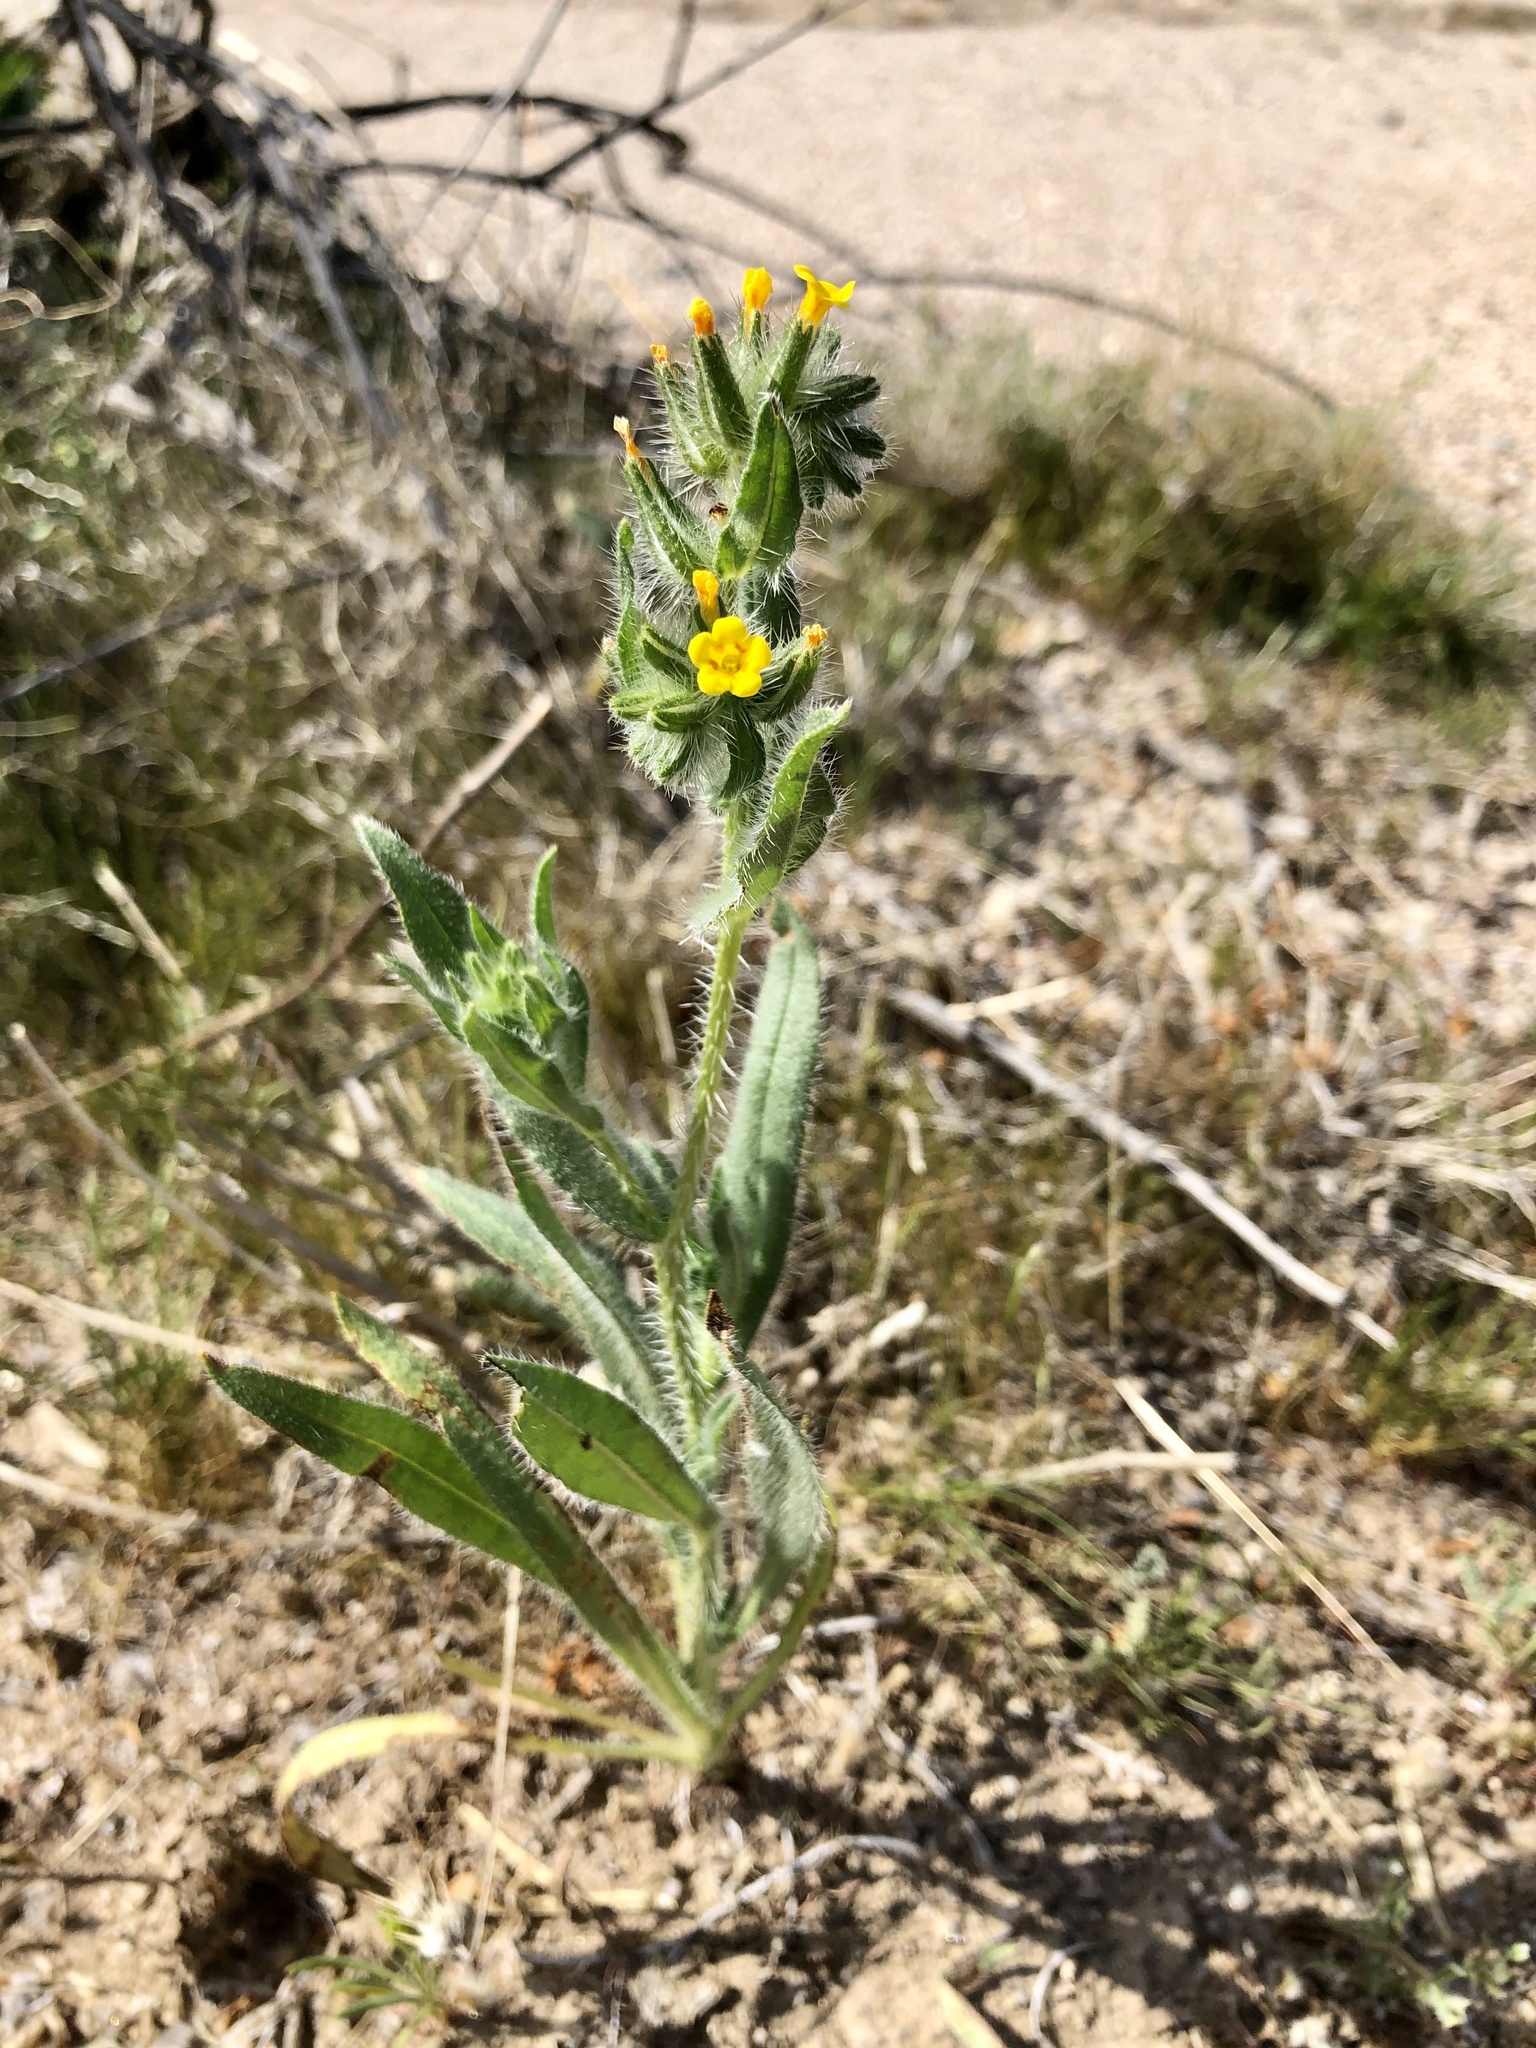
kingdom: Plantae
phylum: Tracheophyta
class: Magnoliopsida
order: Boraginales
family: Boraginaceae
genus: Amsinckia
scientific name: Amsinckia tessellata
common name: Tessellate fiddleneck
